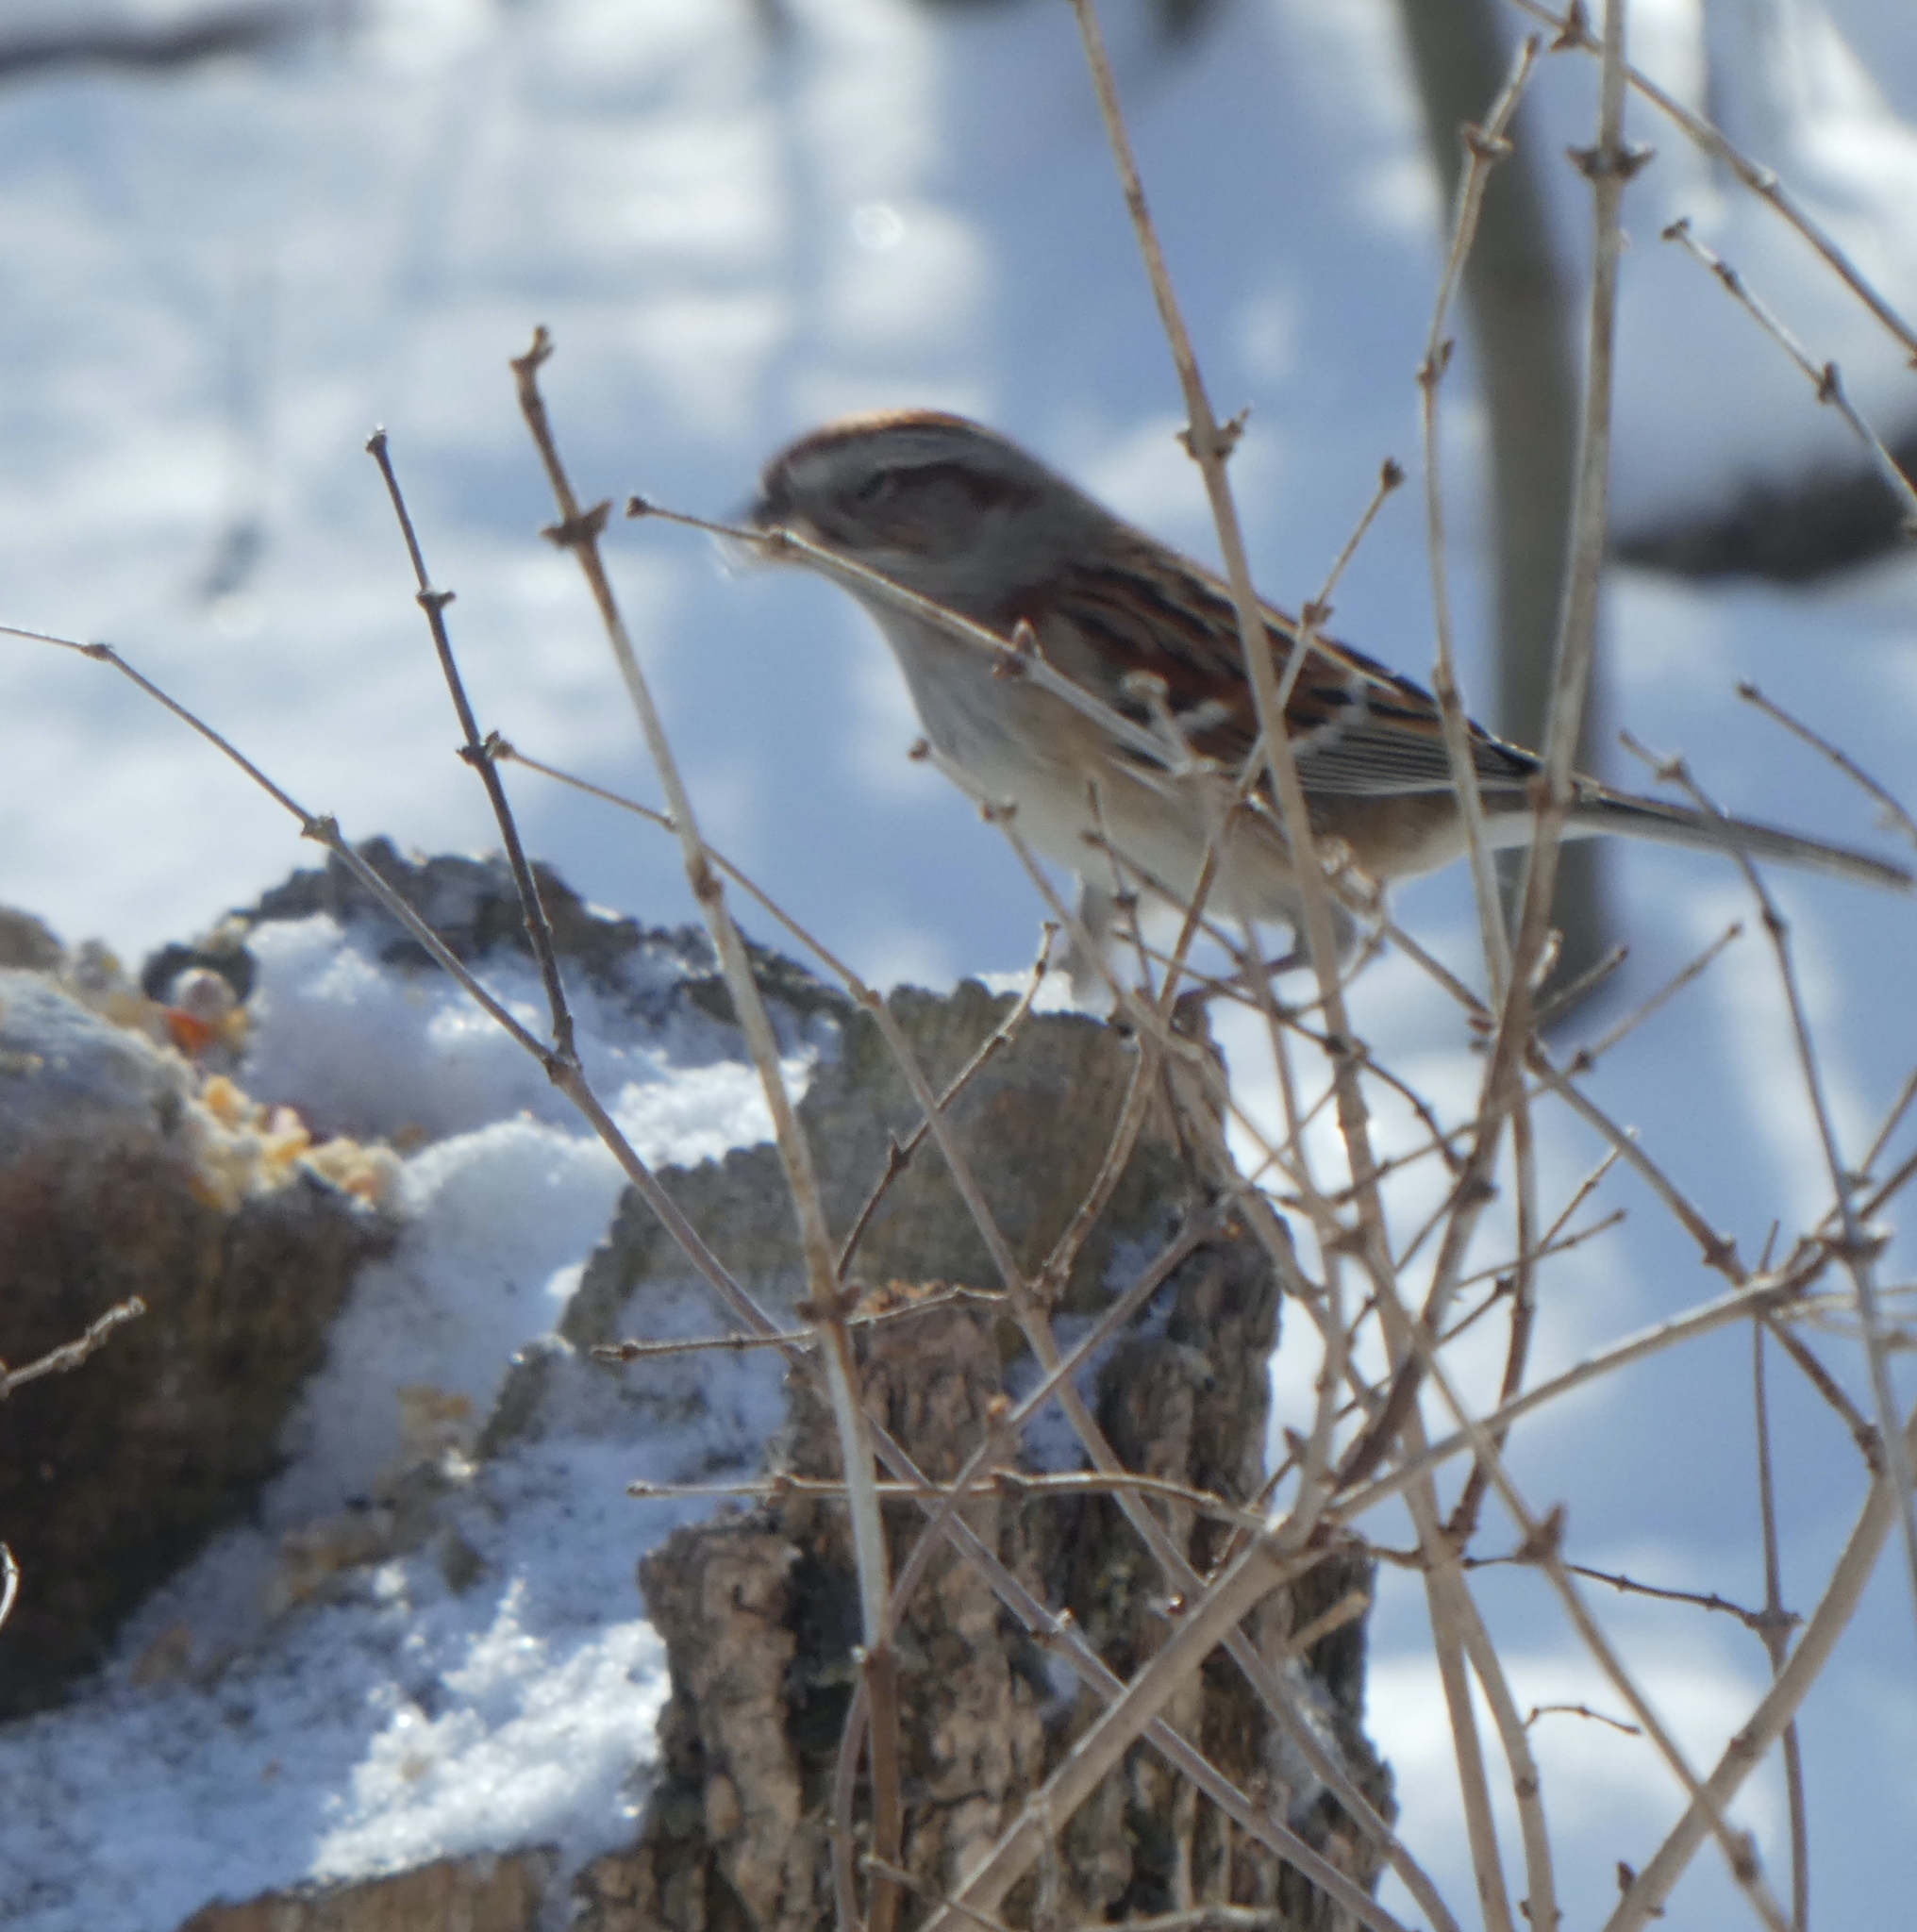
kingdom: Animalia
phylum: Chordata
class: Aves
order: Passeriformes
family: Passerellidae
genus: Spizelloides
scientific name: Spizelloides arborea
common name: American tree sparrow
